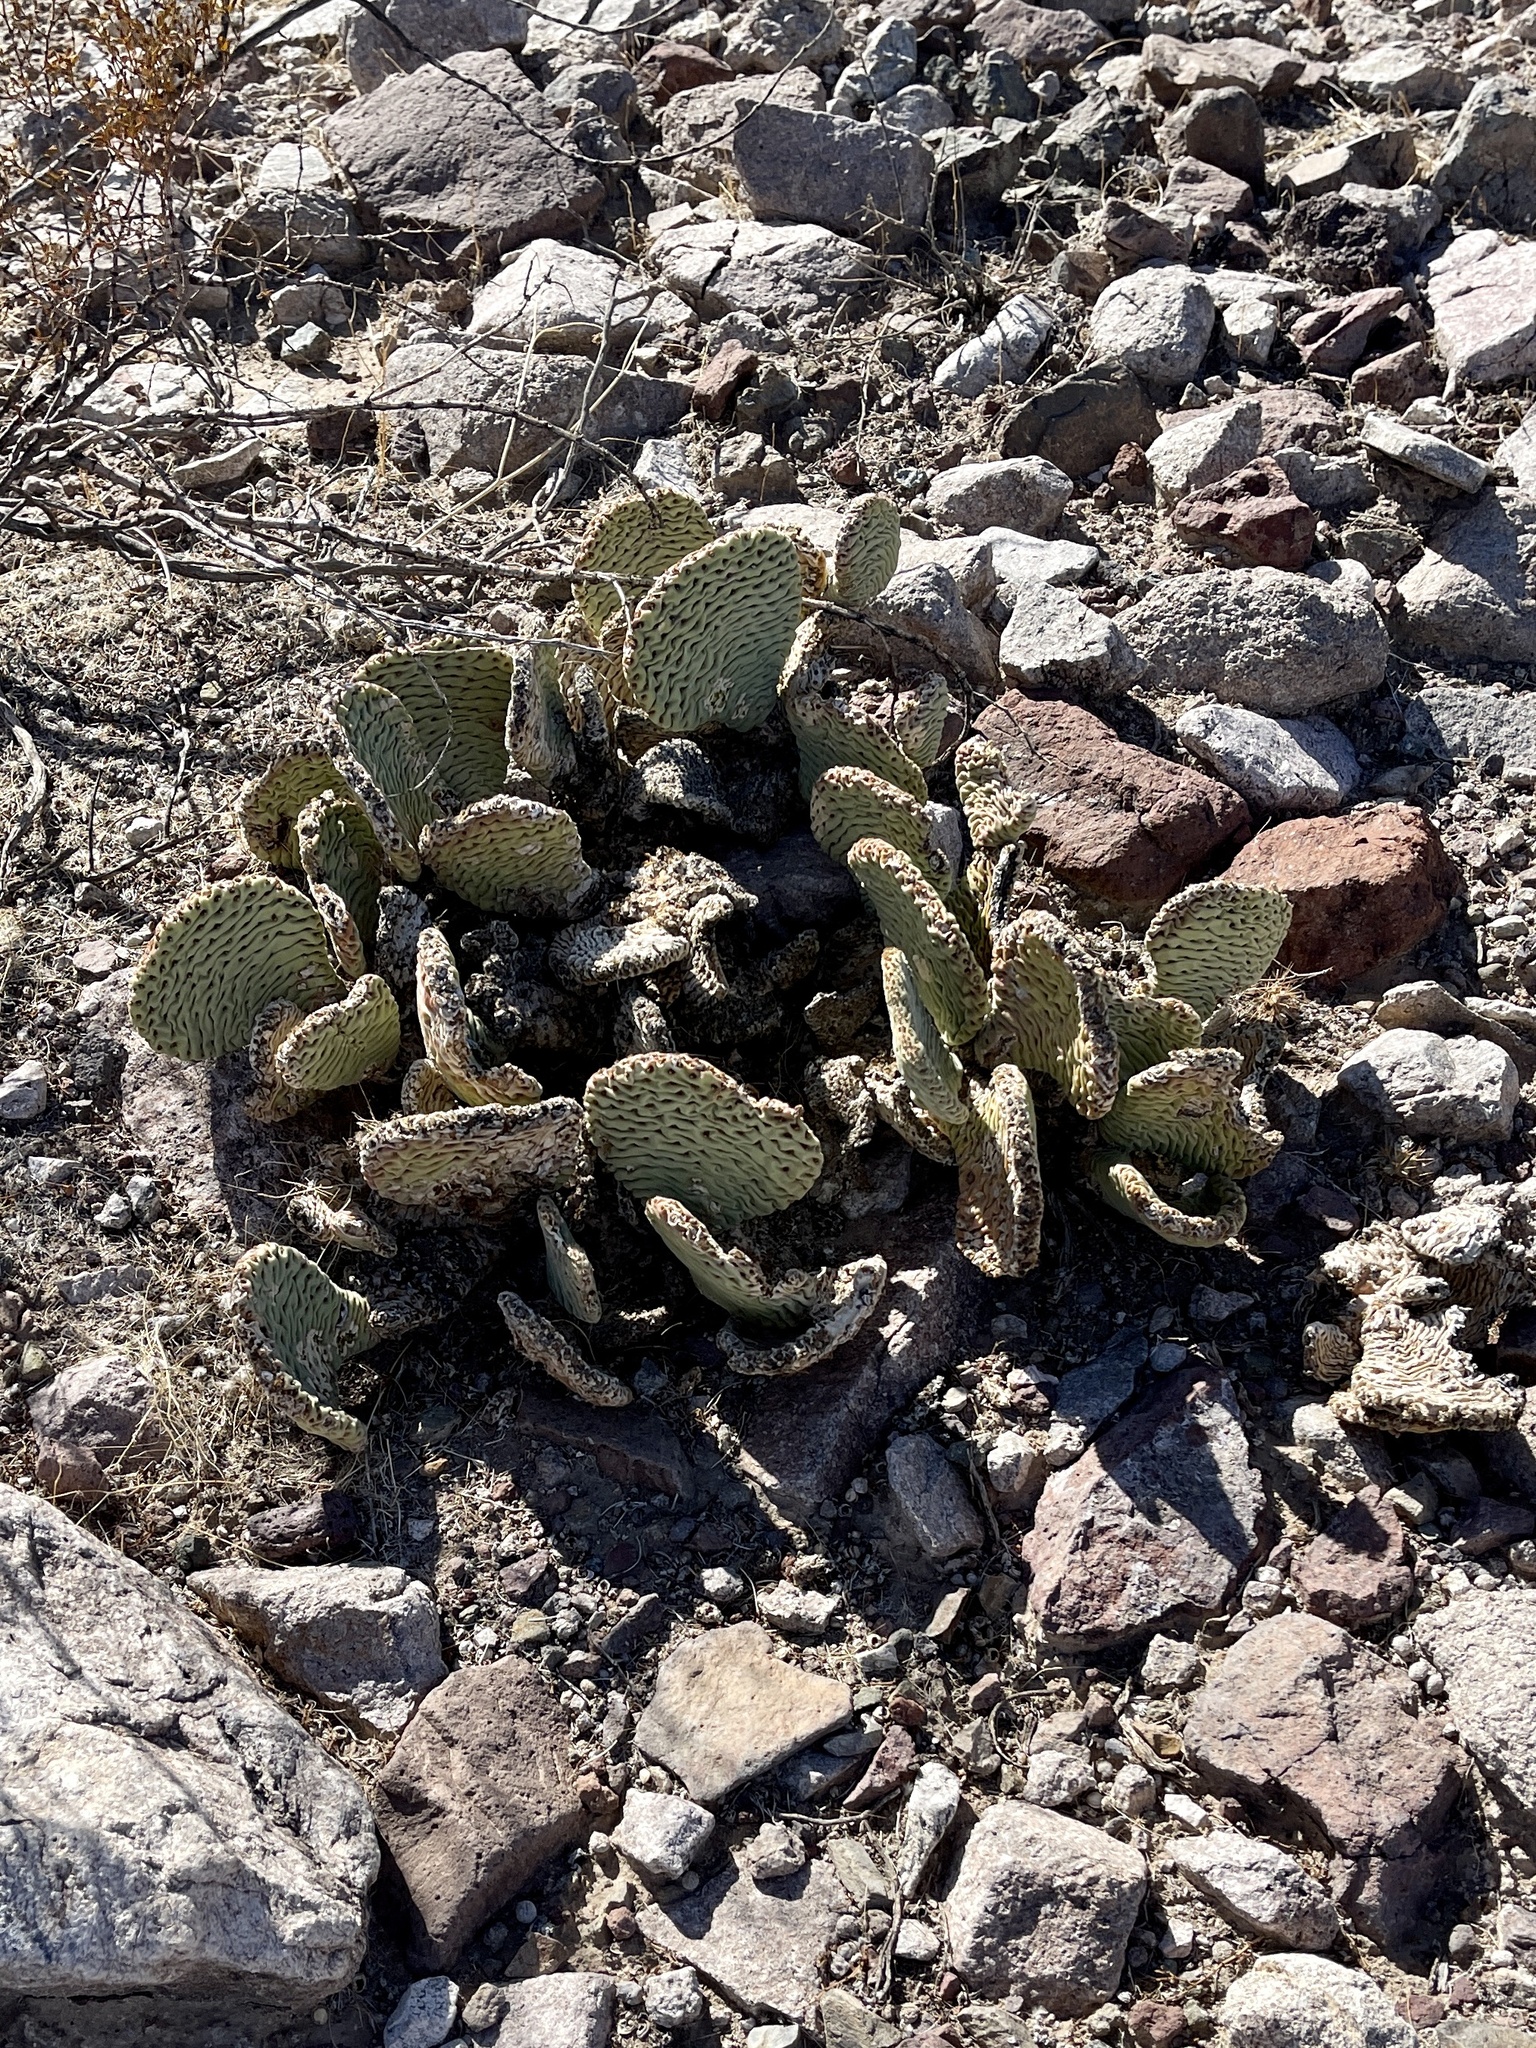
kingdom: Plantae
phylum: Tracheophyta
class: Magnoliopsida
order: Caryophyllales
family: Cactaceae
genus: Opuntia
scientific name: Opuntia basilaris
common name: Beavertail prickly-pear
